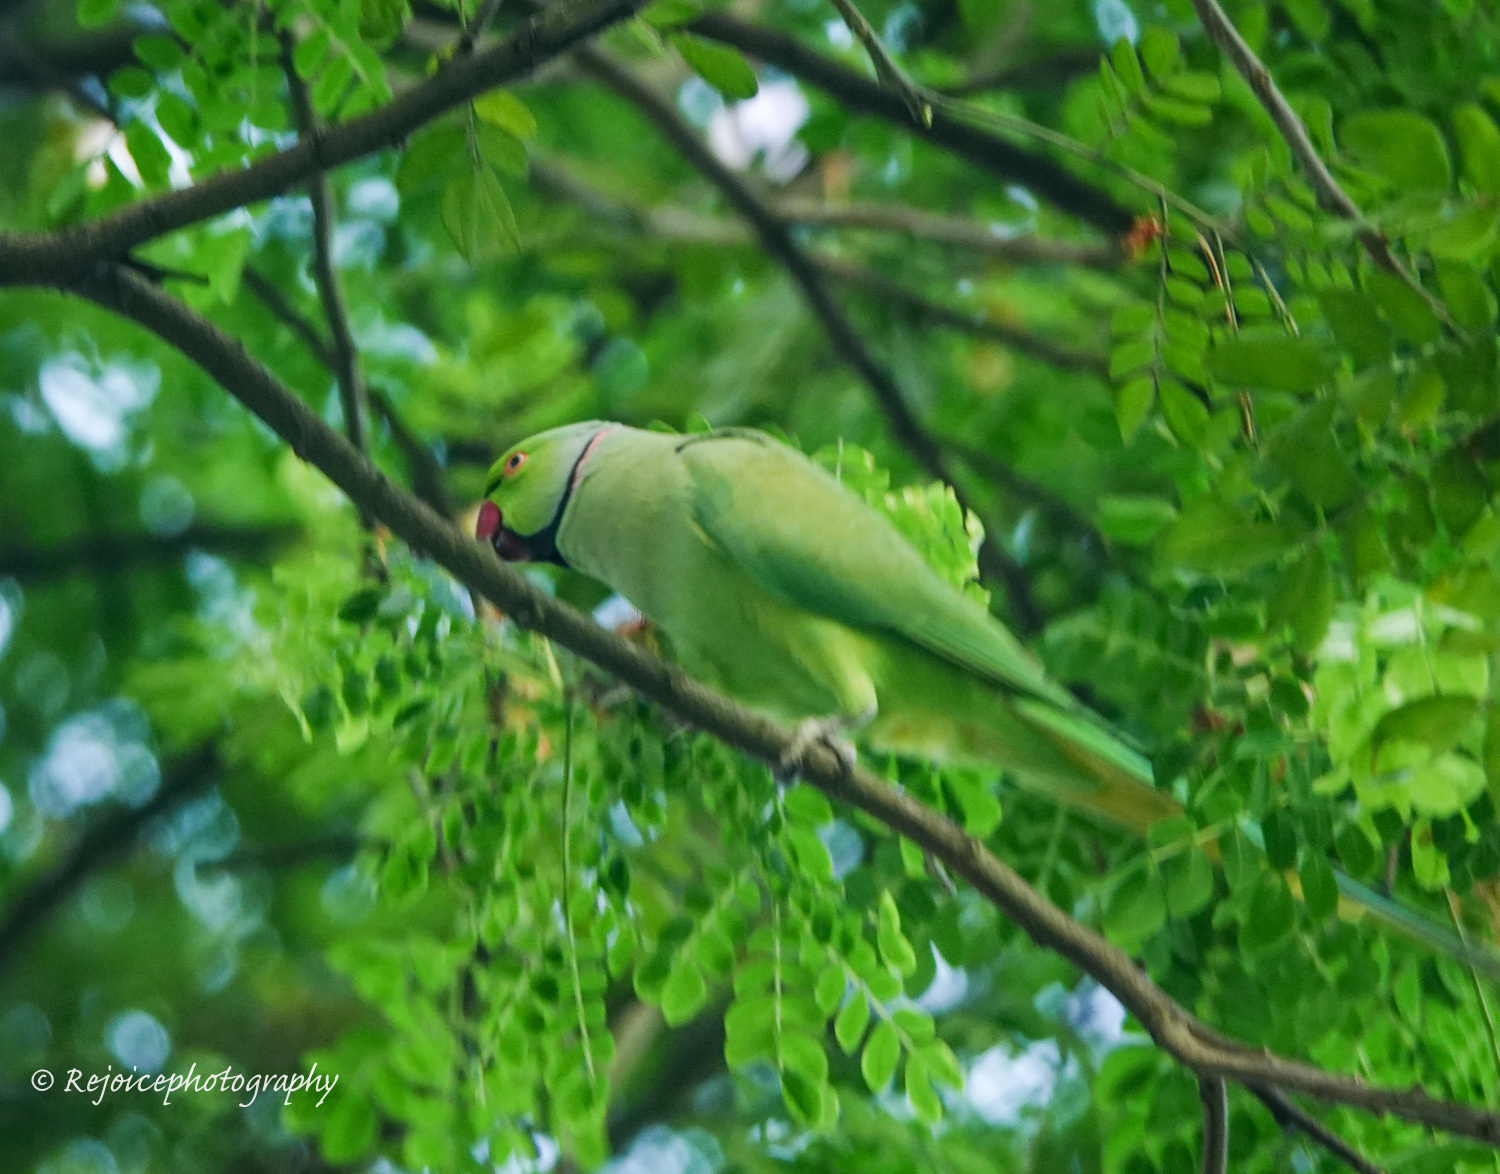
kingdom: Animalia
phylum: Chordata
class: Aves
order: Psittaciformes
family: Psittacidae
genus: Psittacula
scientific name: Psittacula krameri
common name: Rose-ringed parakeet
